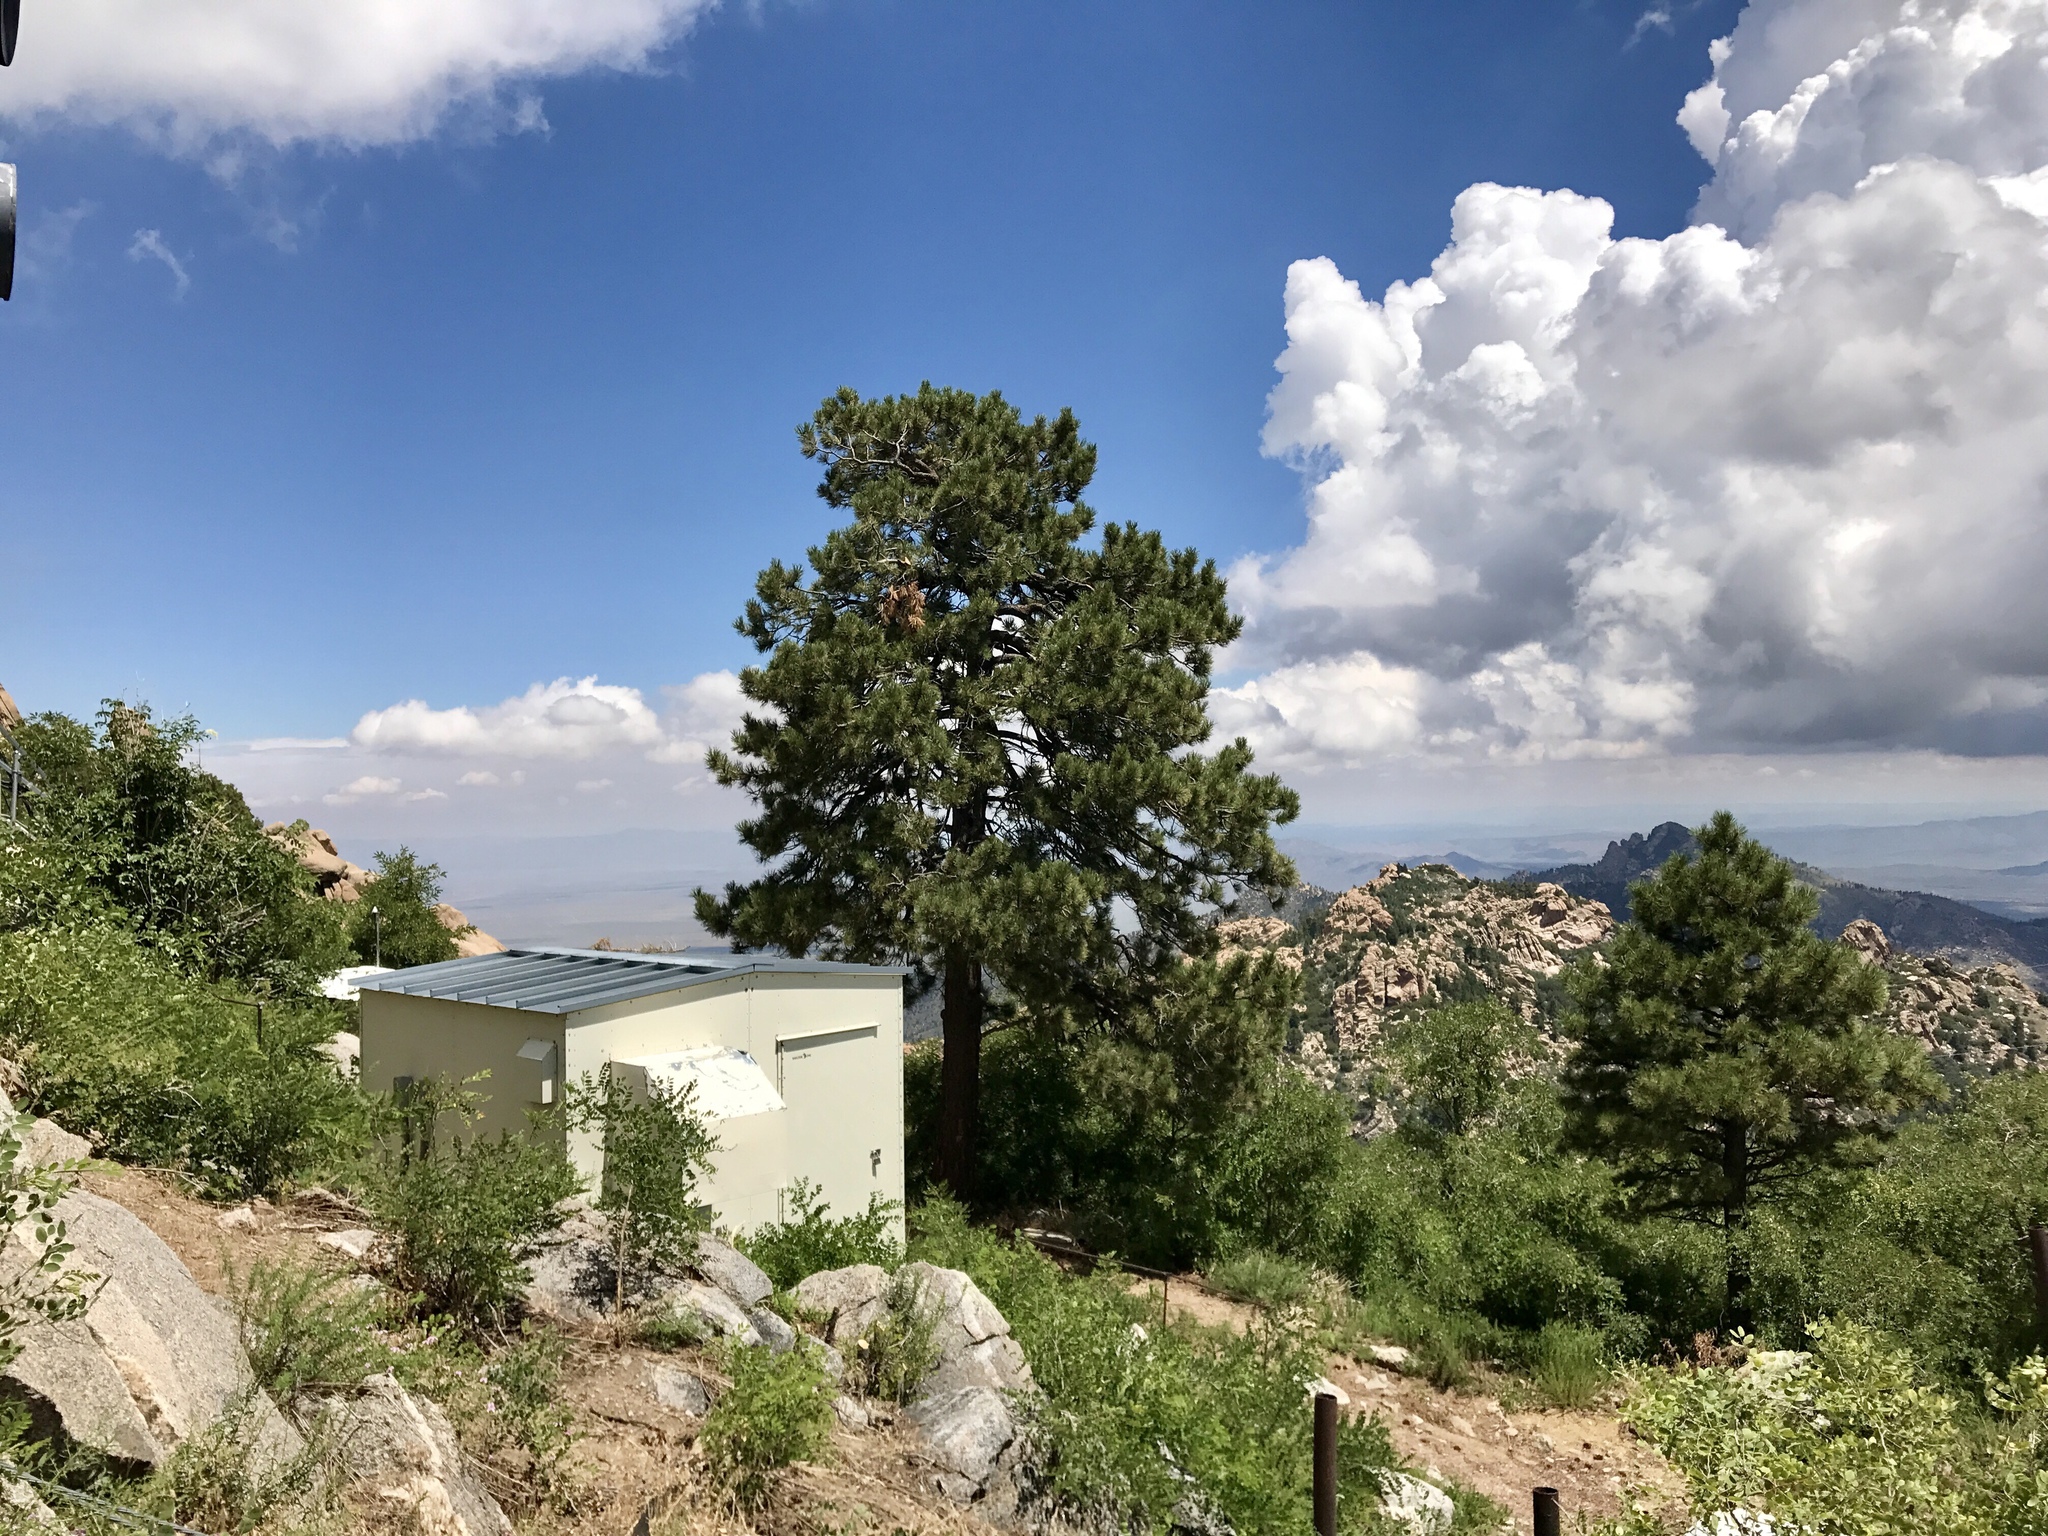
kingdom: Plantae
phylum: Tracheophyta
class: Pinopsida
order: Pinales
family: Pinaceae
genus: Pinus
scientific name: Pinus ponderosa
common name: Western yellow-pine
